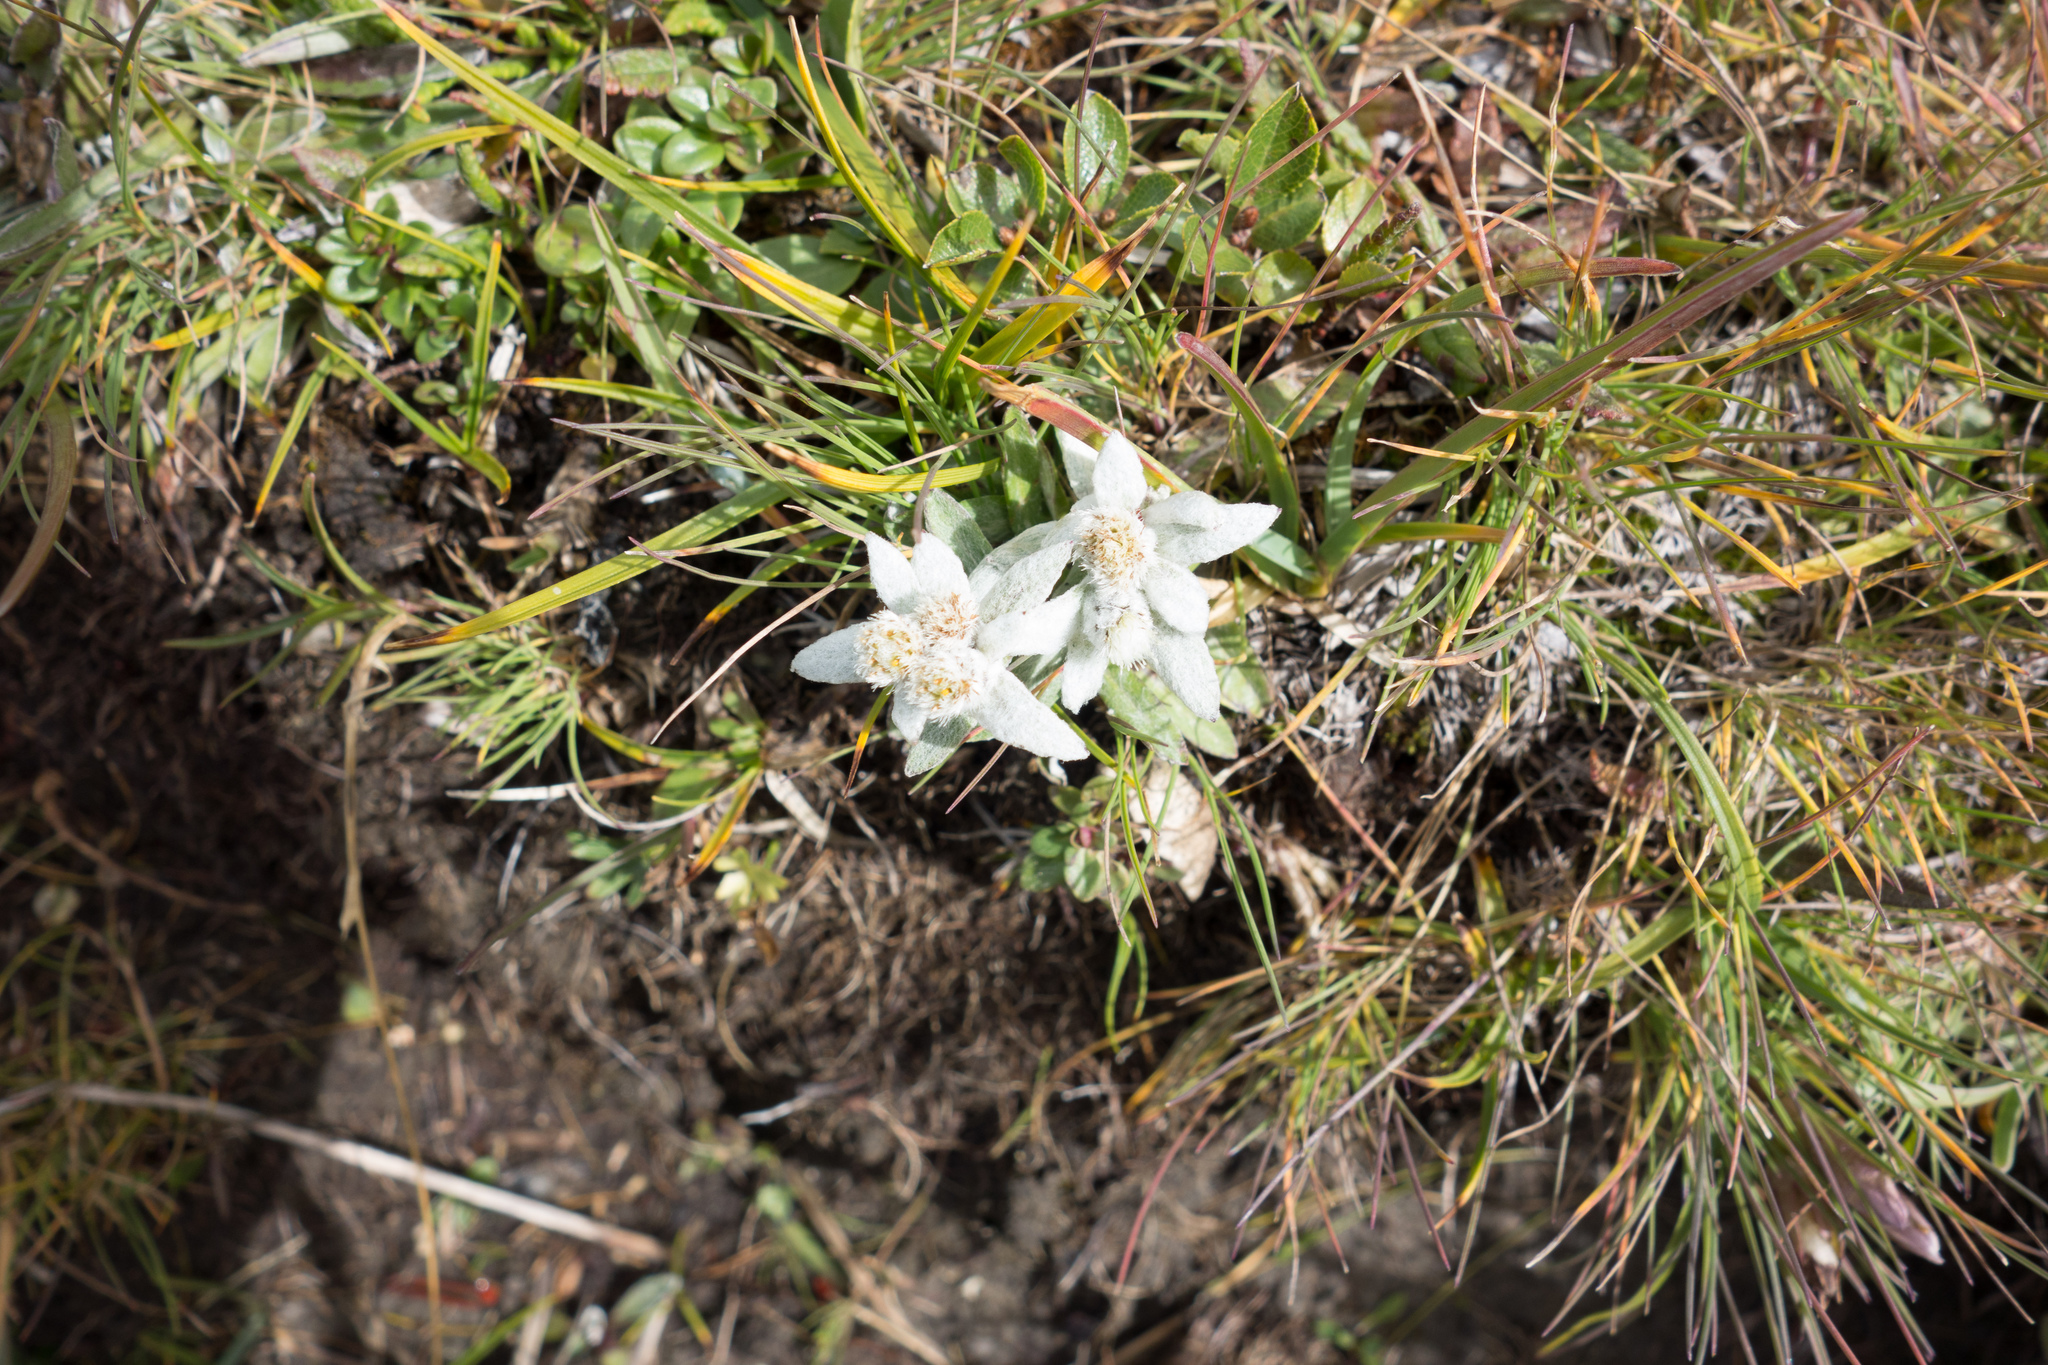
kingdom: Plantae
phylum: Tracheophyta
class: Magnoliopsida
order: Asterales
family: Asteraceae
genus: Leontopodium
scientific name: Leontopodium nivale
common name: Edelweiss
